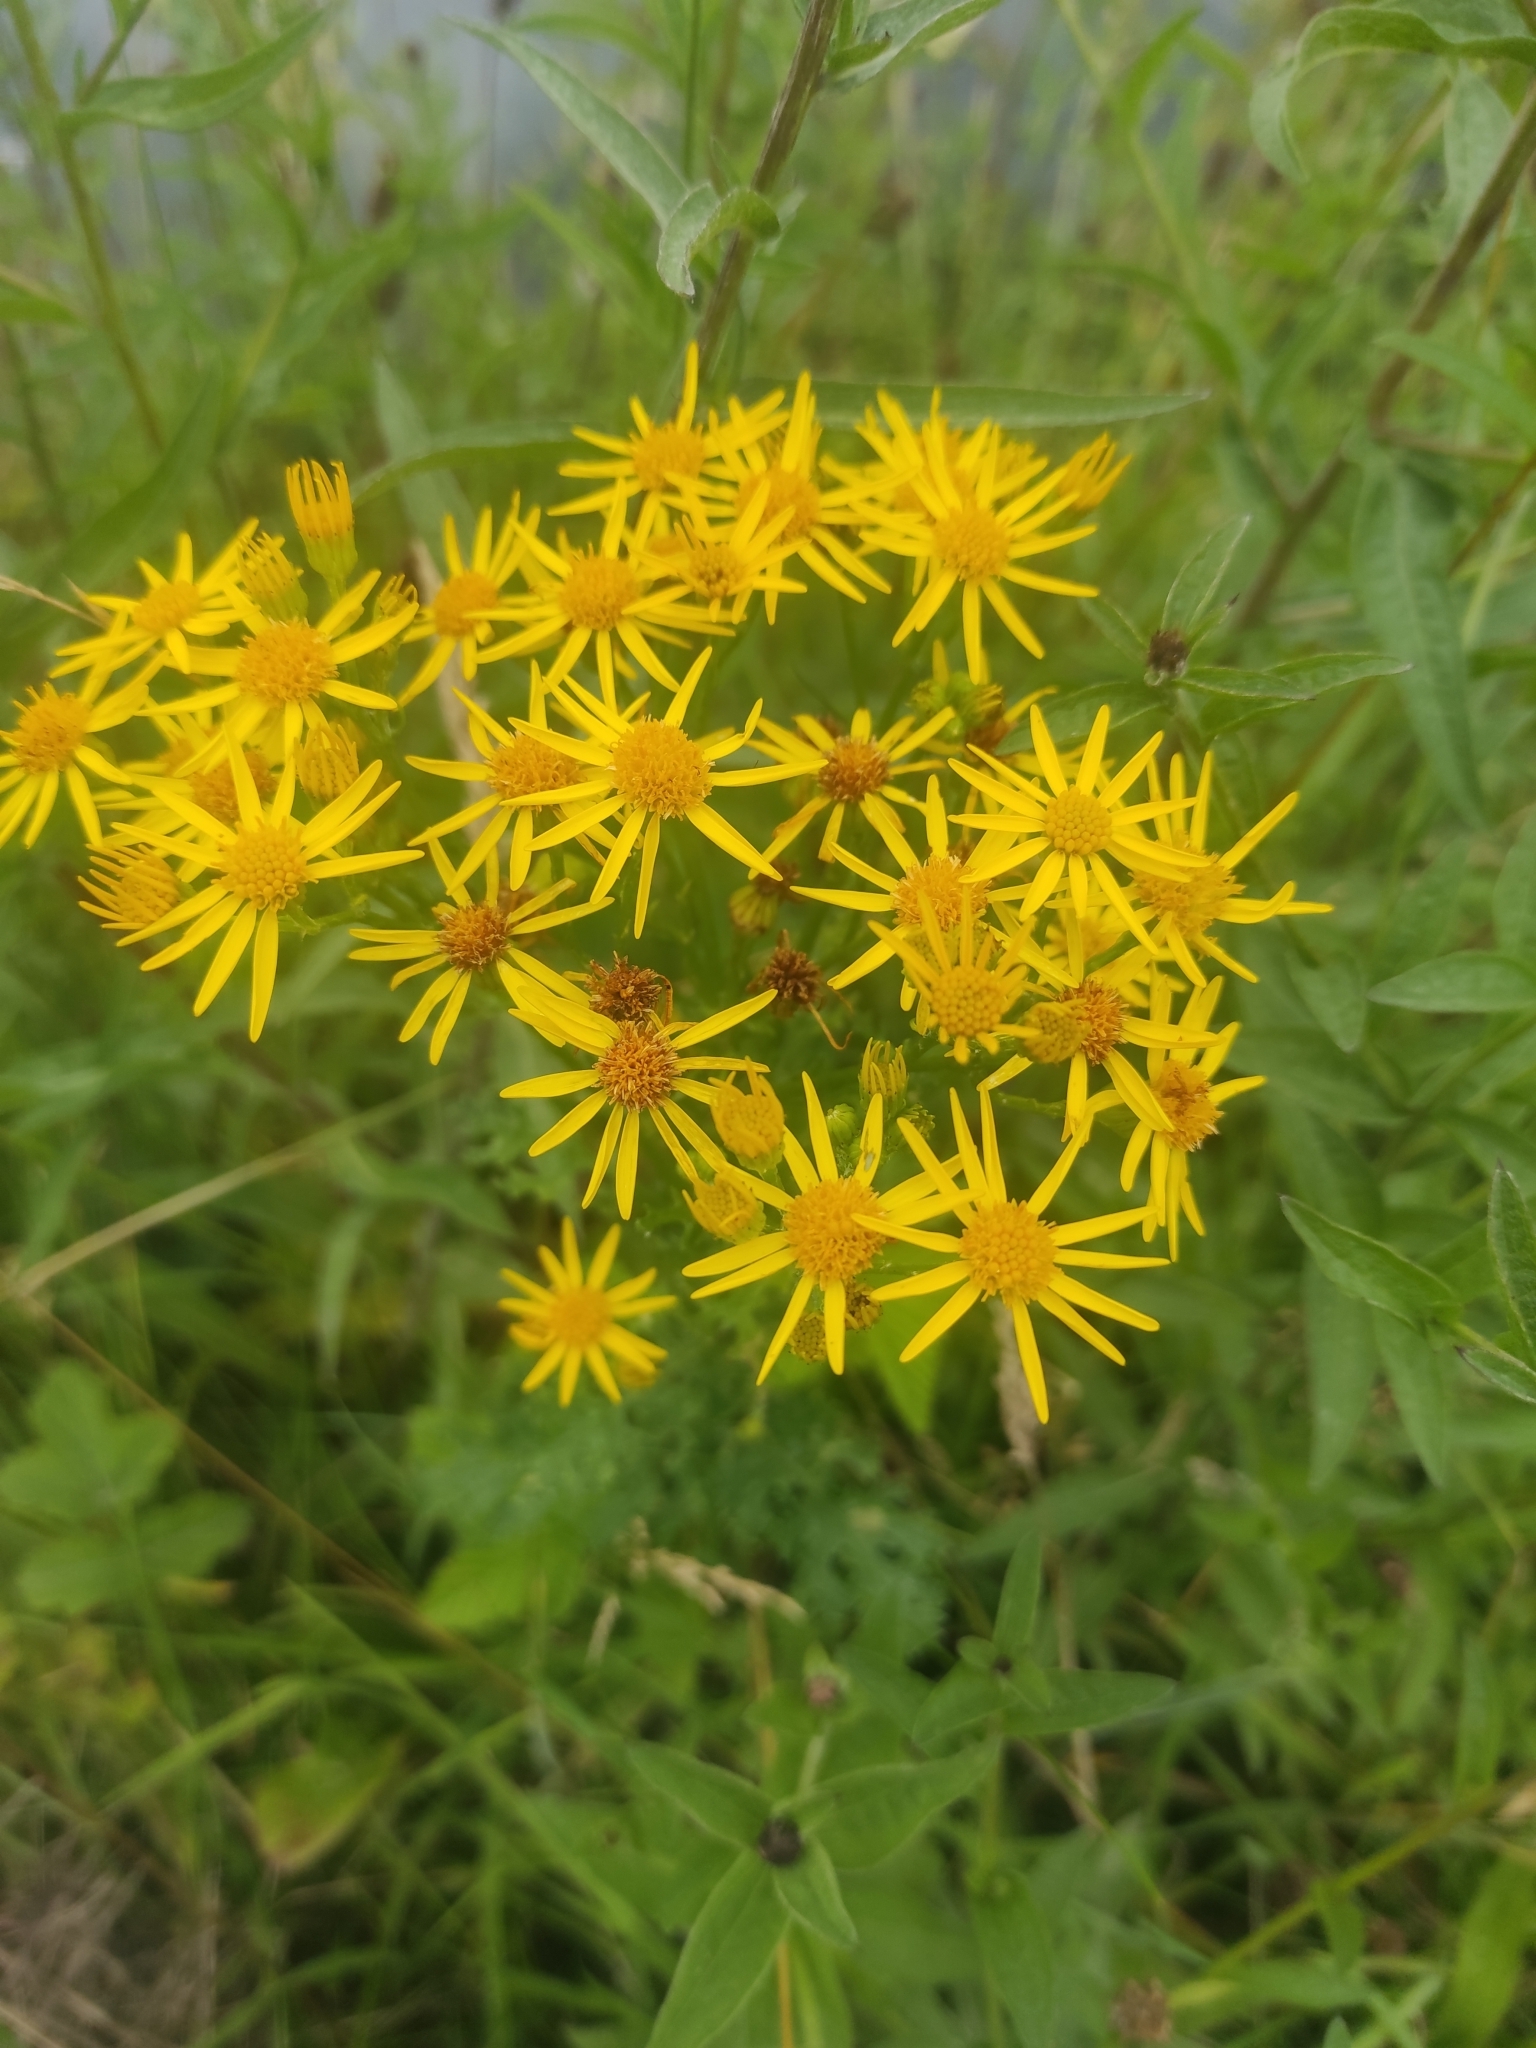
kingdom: Plantae
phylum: Tracheophyta
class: Magnoliopsida
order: Asterales
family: Asteraceae
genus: Jacobaea
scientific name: Jacobaea vulgaris
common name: Stinking willie
